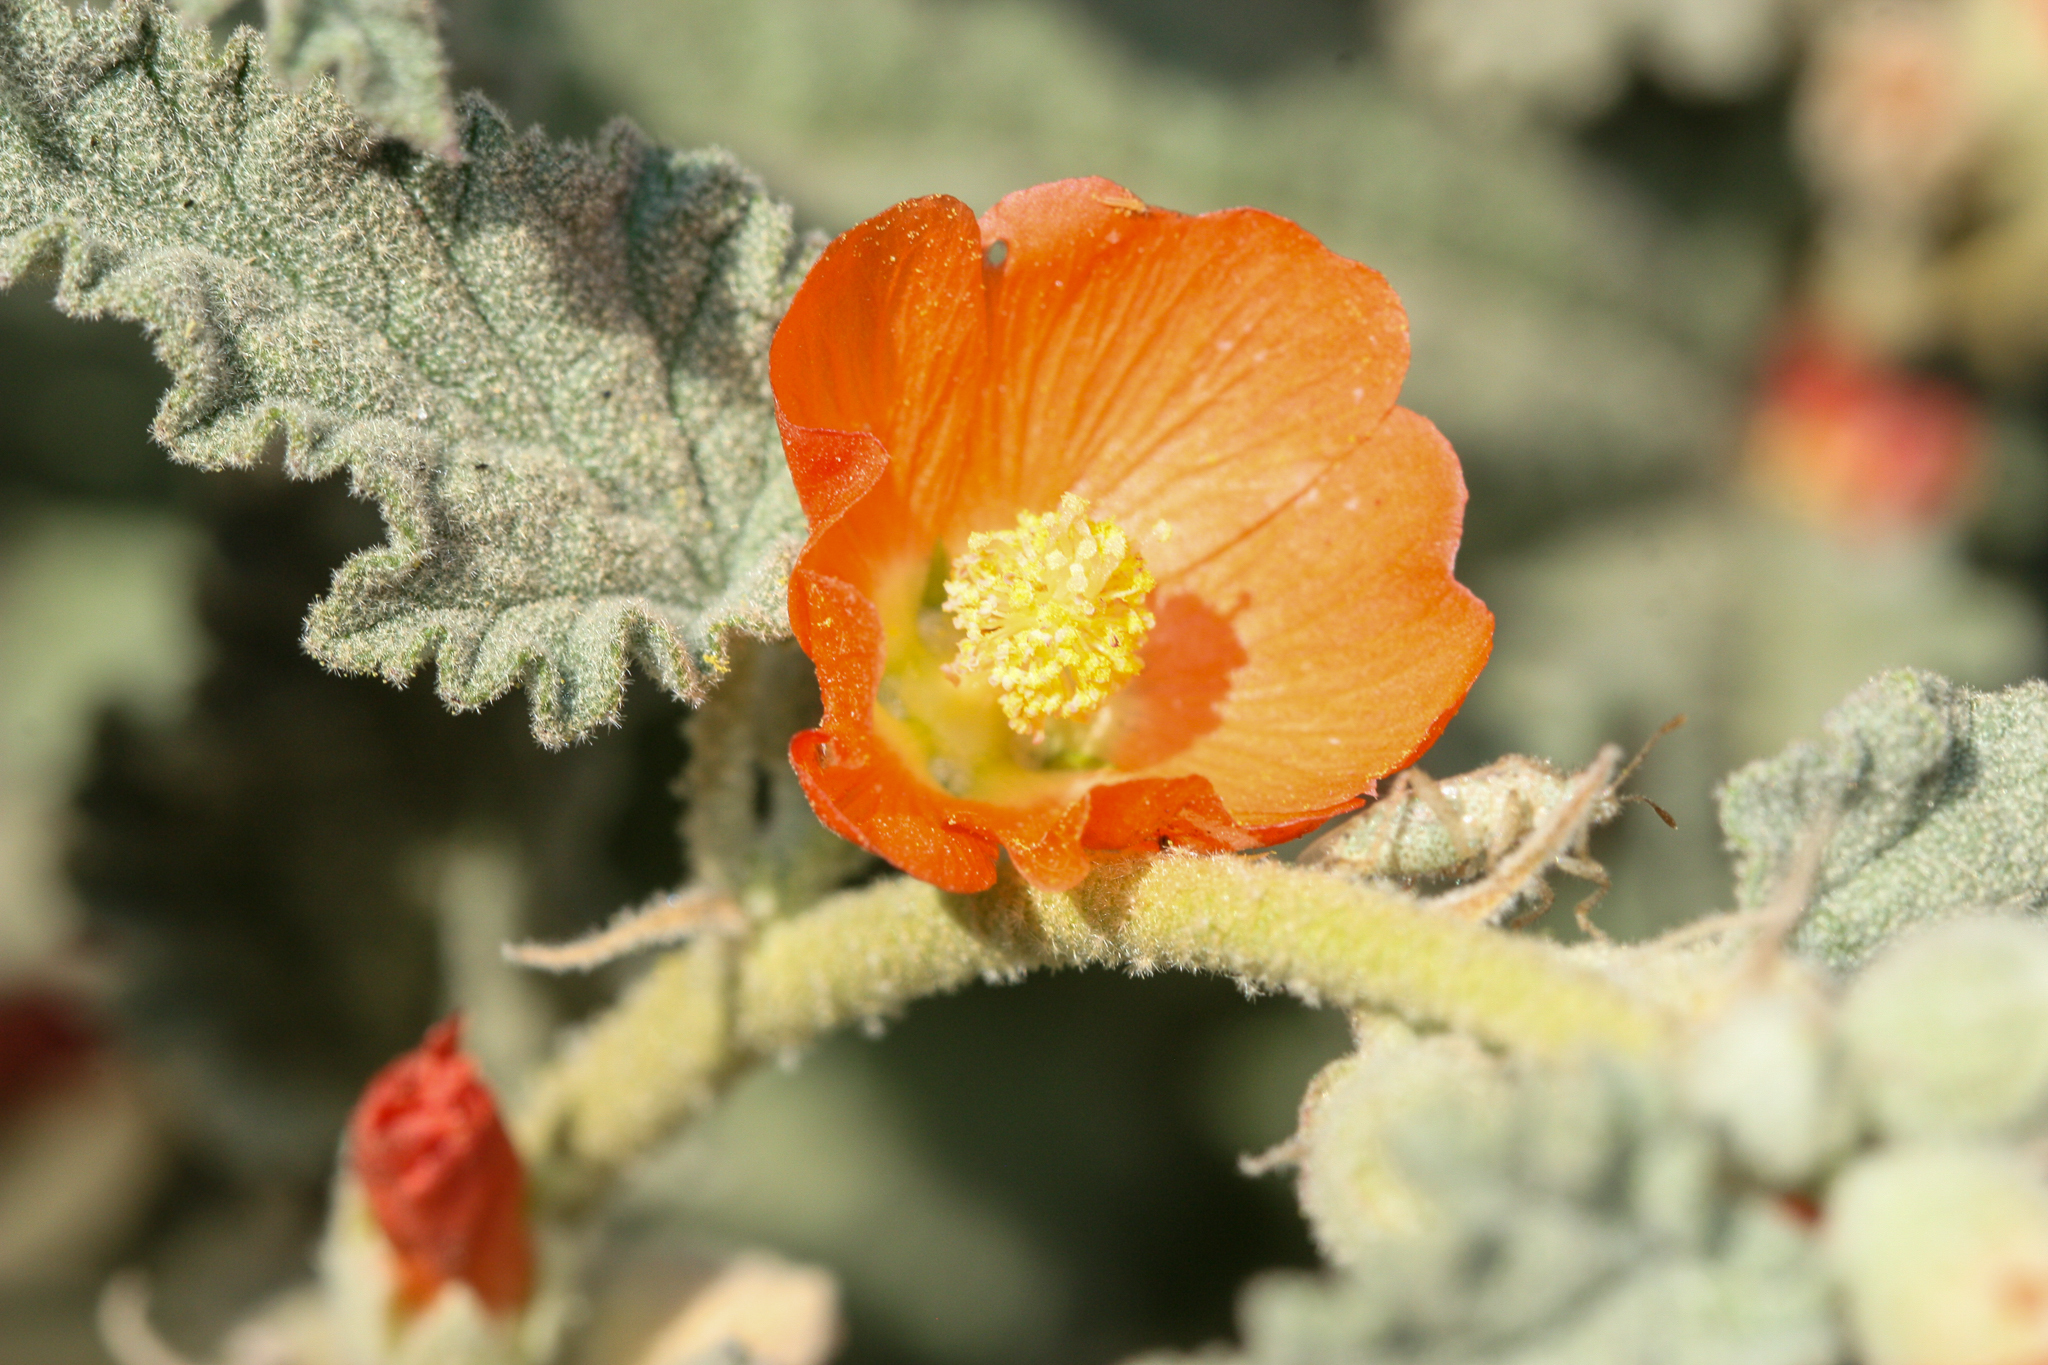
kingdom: Plantae
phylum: Tracheophyta
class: Magnoliopsida
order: Malvales
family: Malvaceae
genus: Sphaeralcea
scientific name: Sphaeralcea ambigua
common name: Apricot globe-mallow
